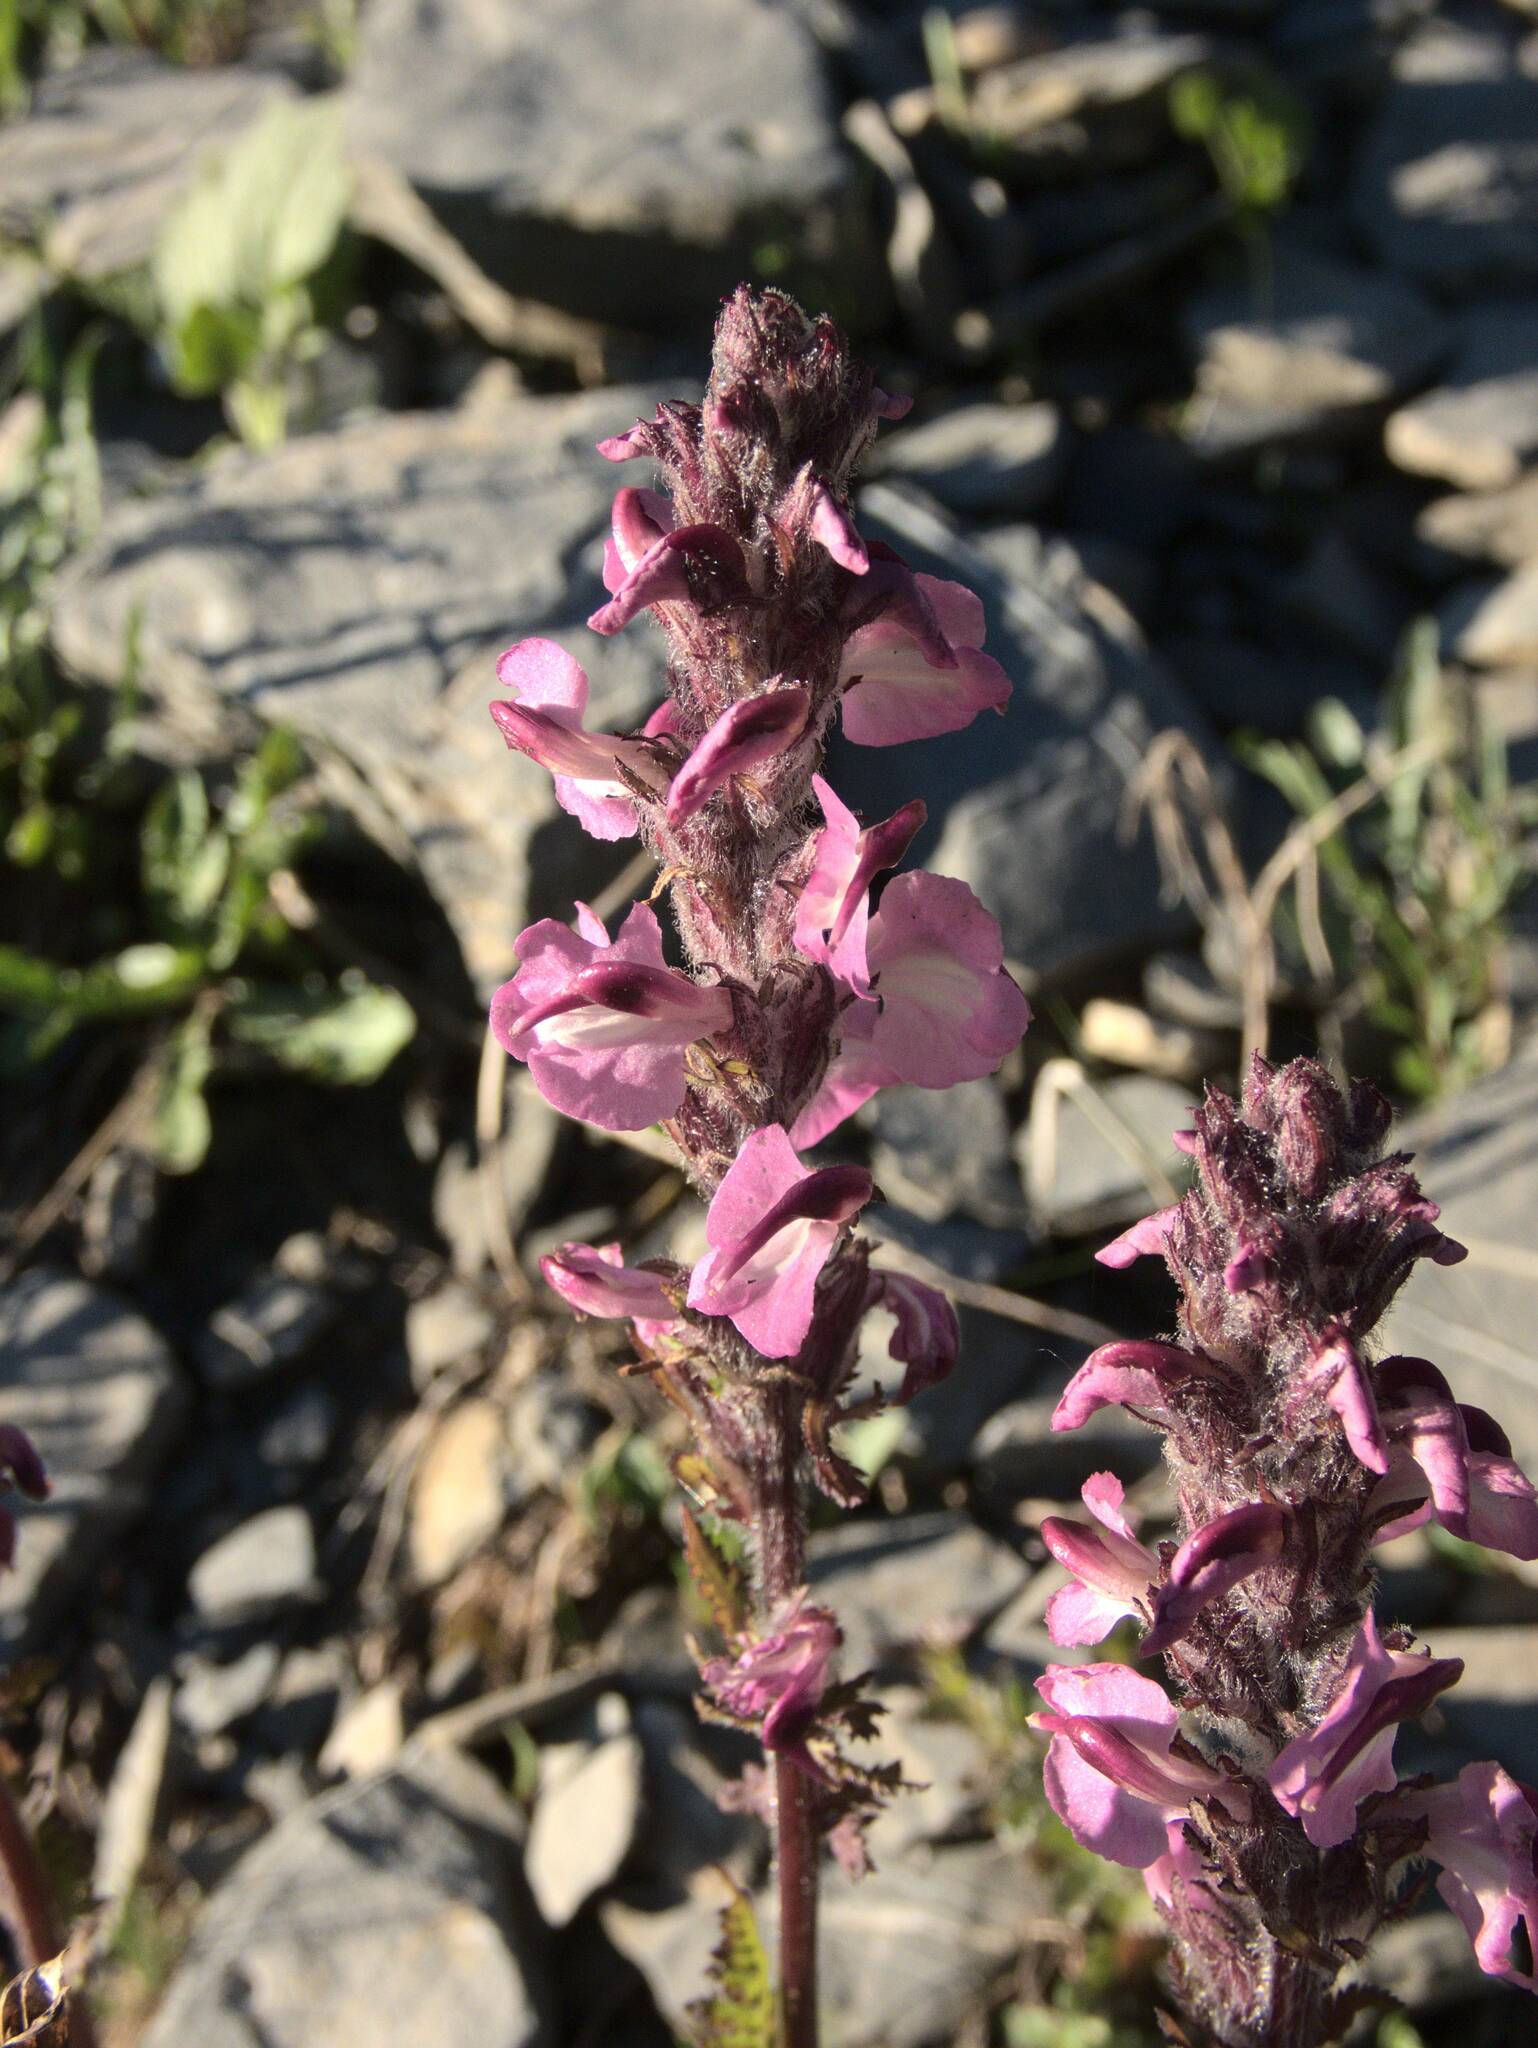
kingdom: Plantae
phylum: Tracheophyta
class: Magnoliopsida
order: Lamiales
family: Orobanchaceae
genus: Pedicularis
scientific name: Pedicularis rostratospicata
